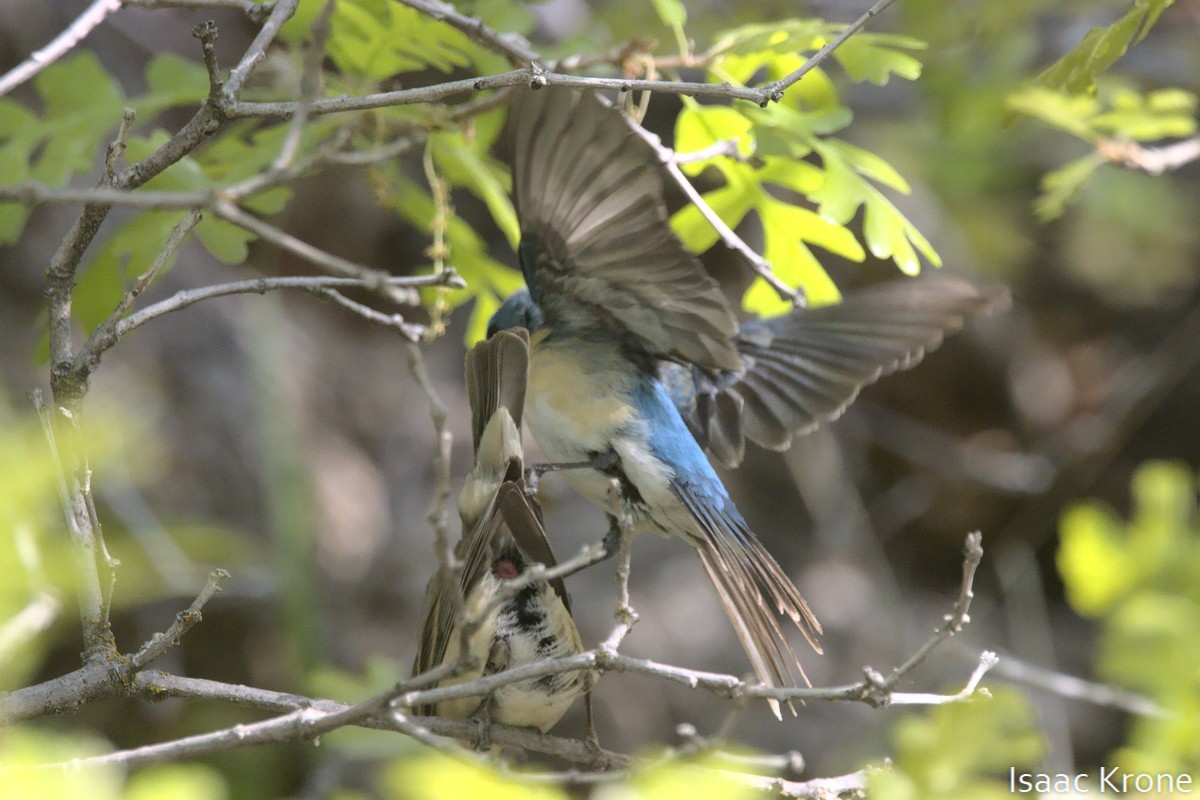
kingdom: Animalia
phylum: Chordata
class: Aves
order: Passeriformes
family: Cardinalidae
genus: Passerina
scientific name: Passerina amoena
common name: Lazuli bunting
